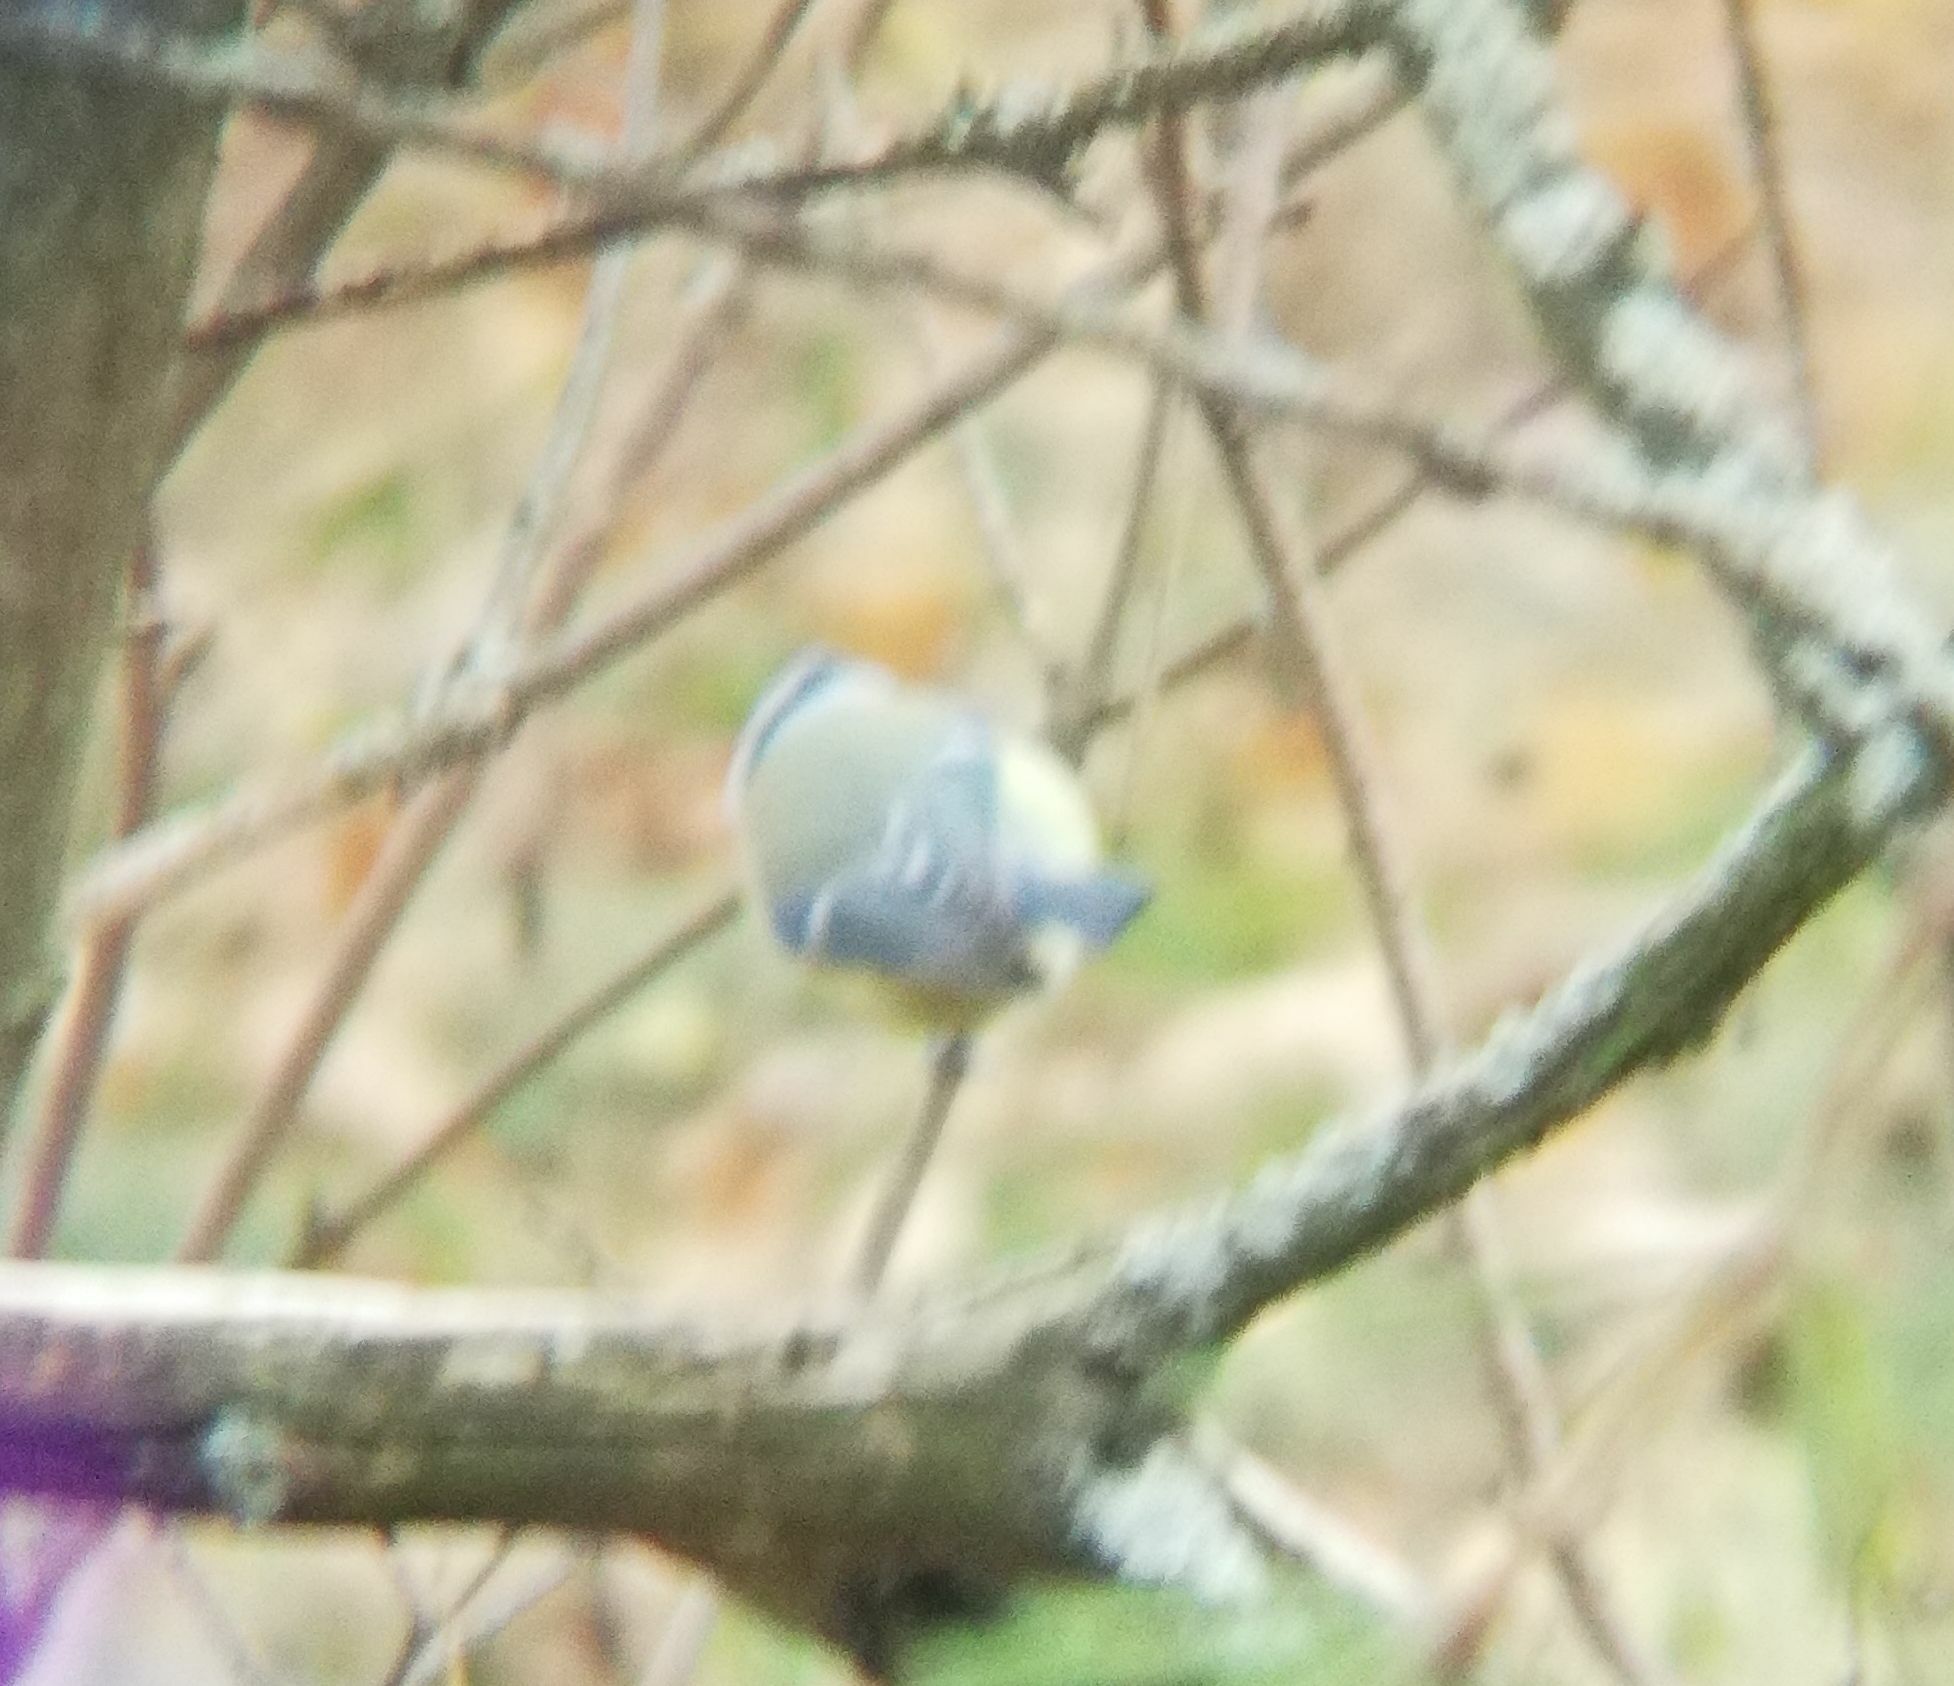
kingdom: Animalia
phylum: Chordata
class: Aves
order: Passeriformes
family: Paridae
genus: Cyanistes
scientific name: Cyanistes caeruleus
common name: Eurasian blue tit
